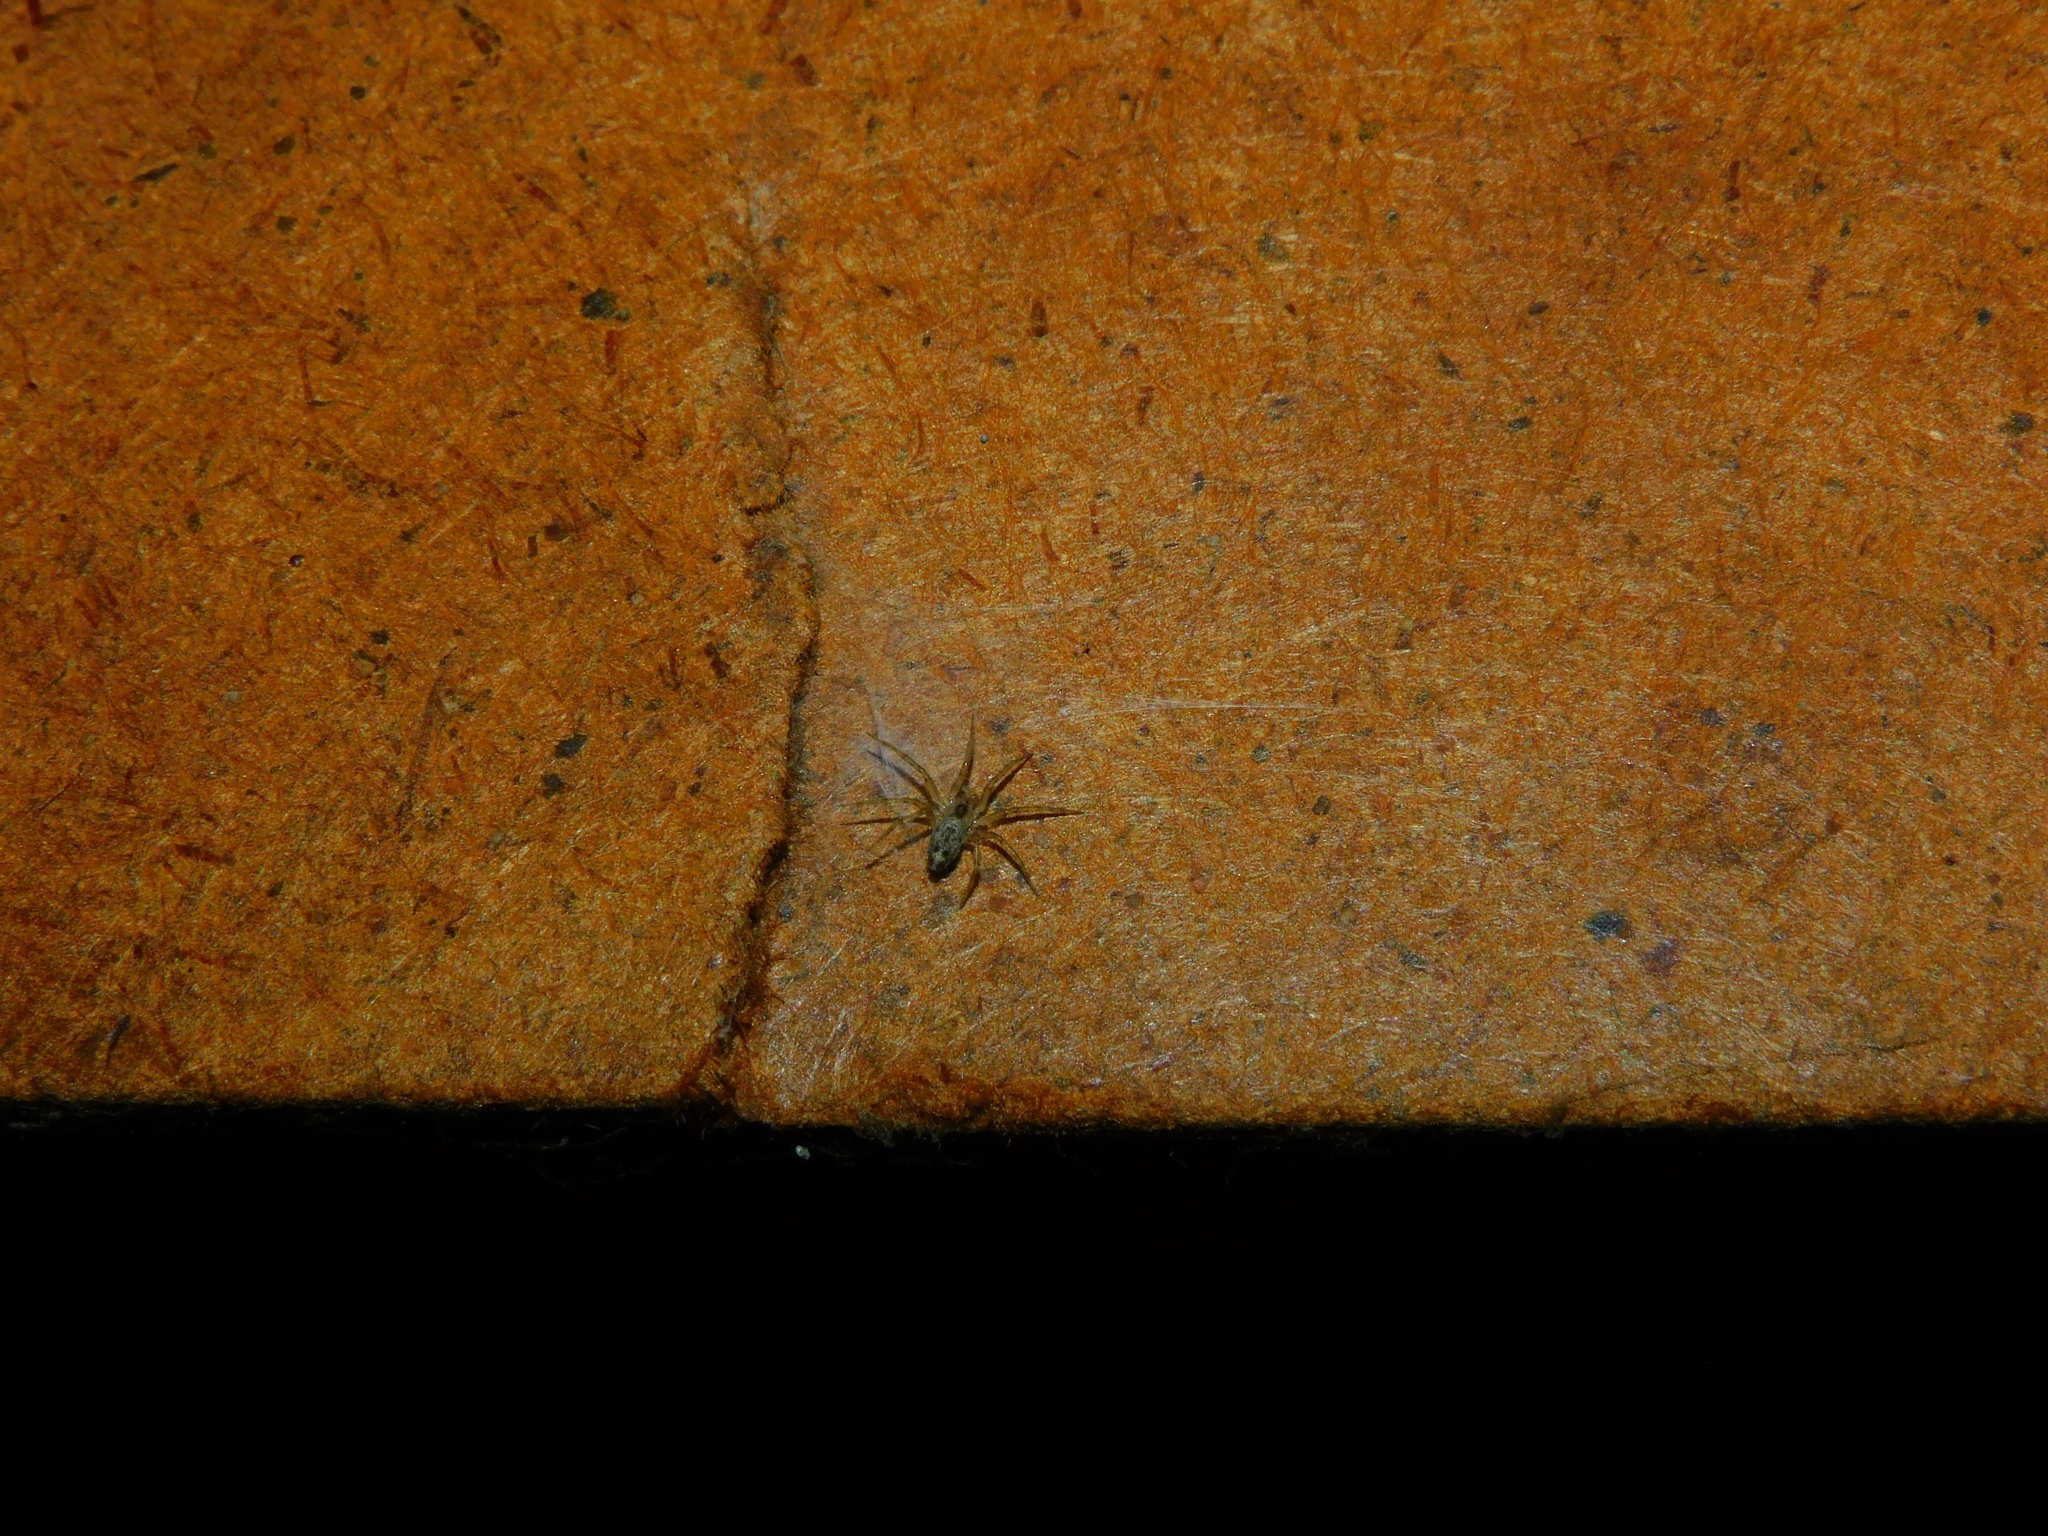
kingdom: Animalia
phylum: Arthropoda
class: Arachnida
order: Araneae
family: Oecobiidae
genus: Oecobius
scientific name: Oecobius navus
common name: Flatmesh weaver
